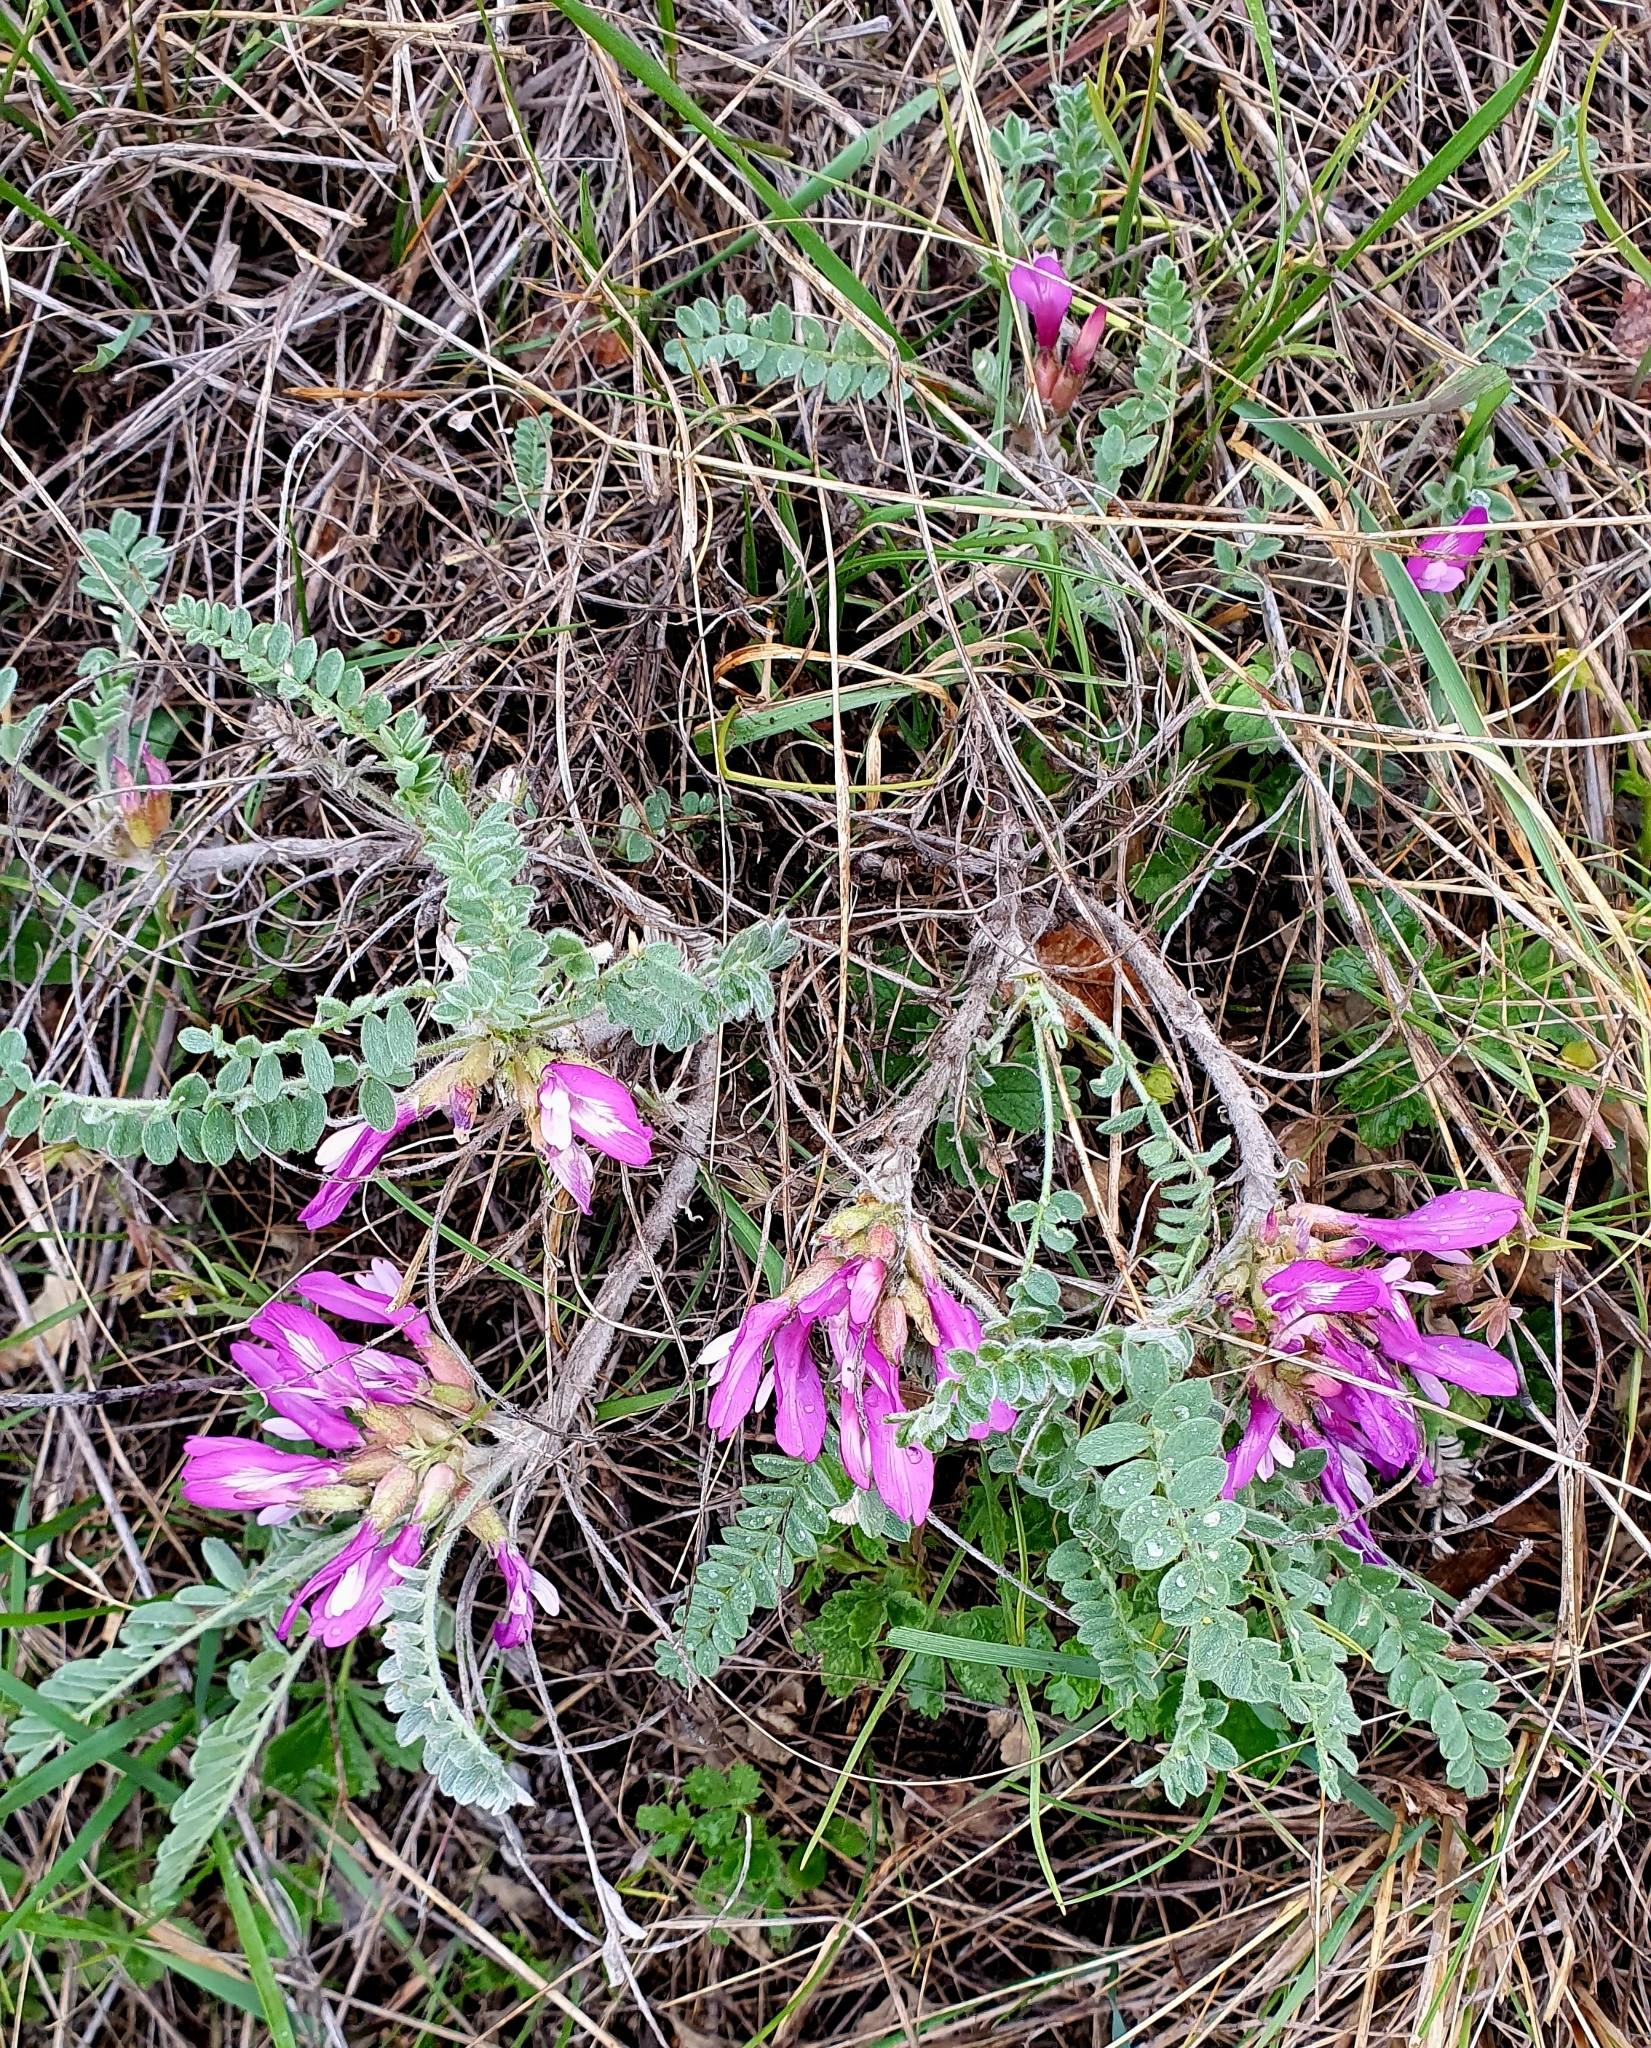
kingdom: Plantae
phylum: Tracheophyta
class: Magnoliopsida
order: Fabales
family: Fabaceae
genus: Astragalus
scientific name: Astragalus testiculatus
